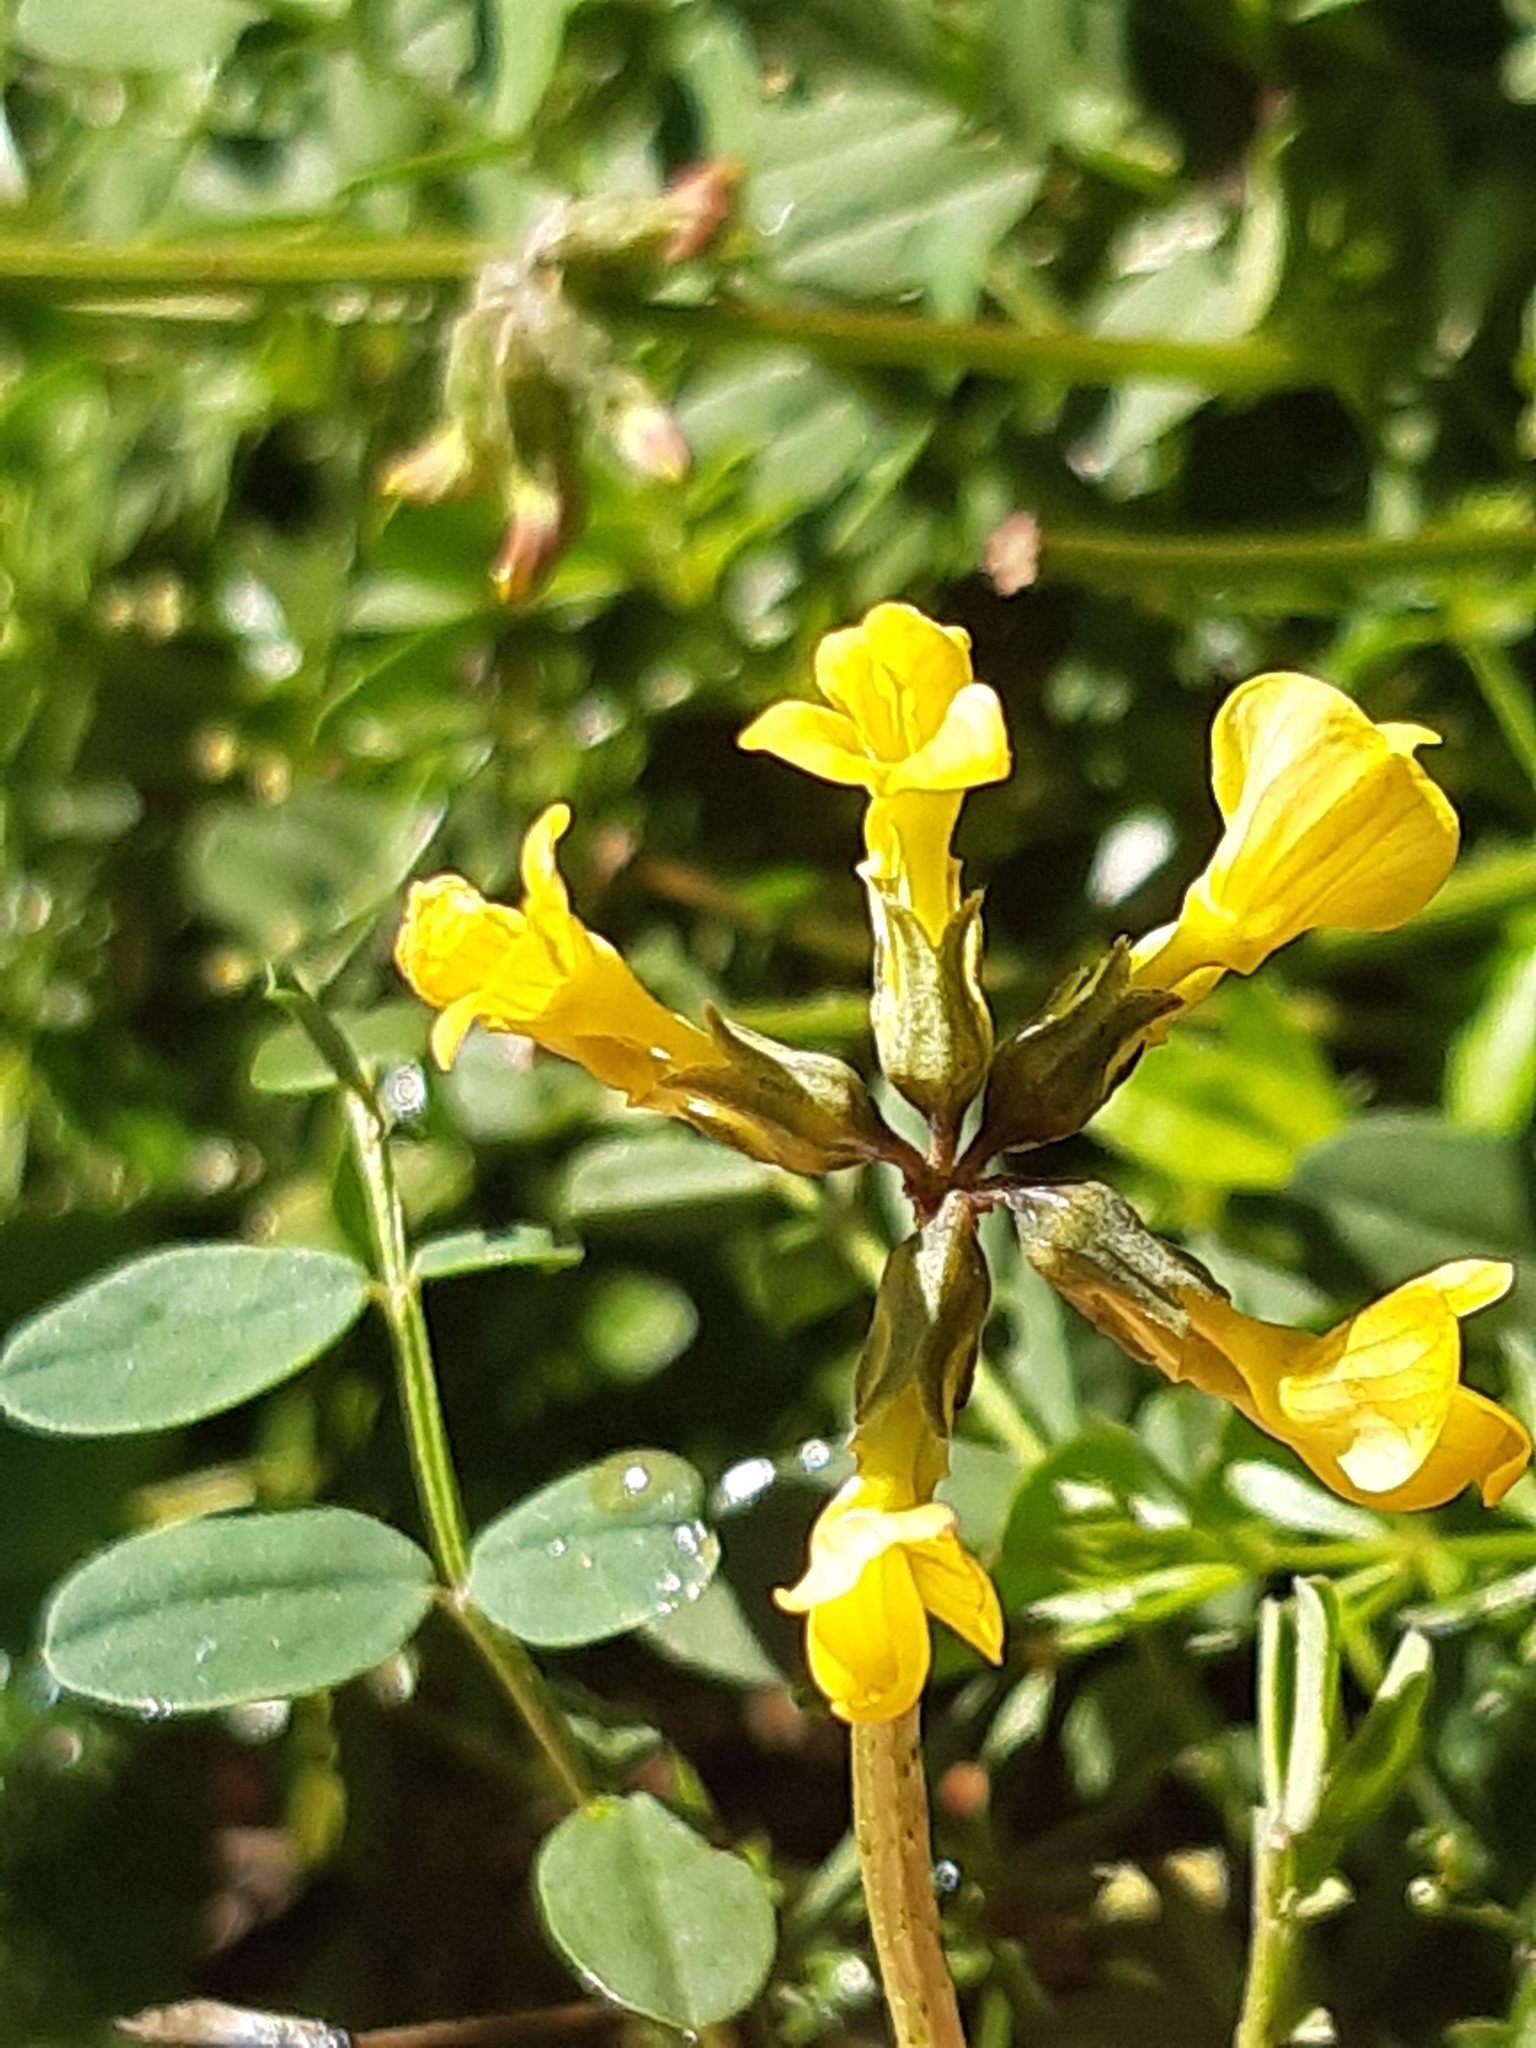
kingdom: Plantae
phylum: Tracheophyta
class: Magnoliopsida
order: Fabales
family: Fabaceae
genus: Hippocrepis
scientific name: Hippocrepis comosa
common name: Horseshoe vetch
